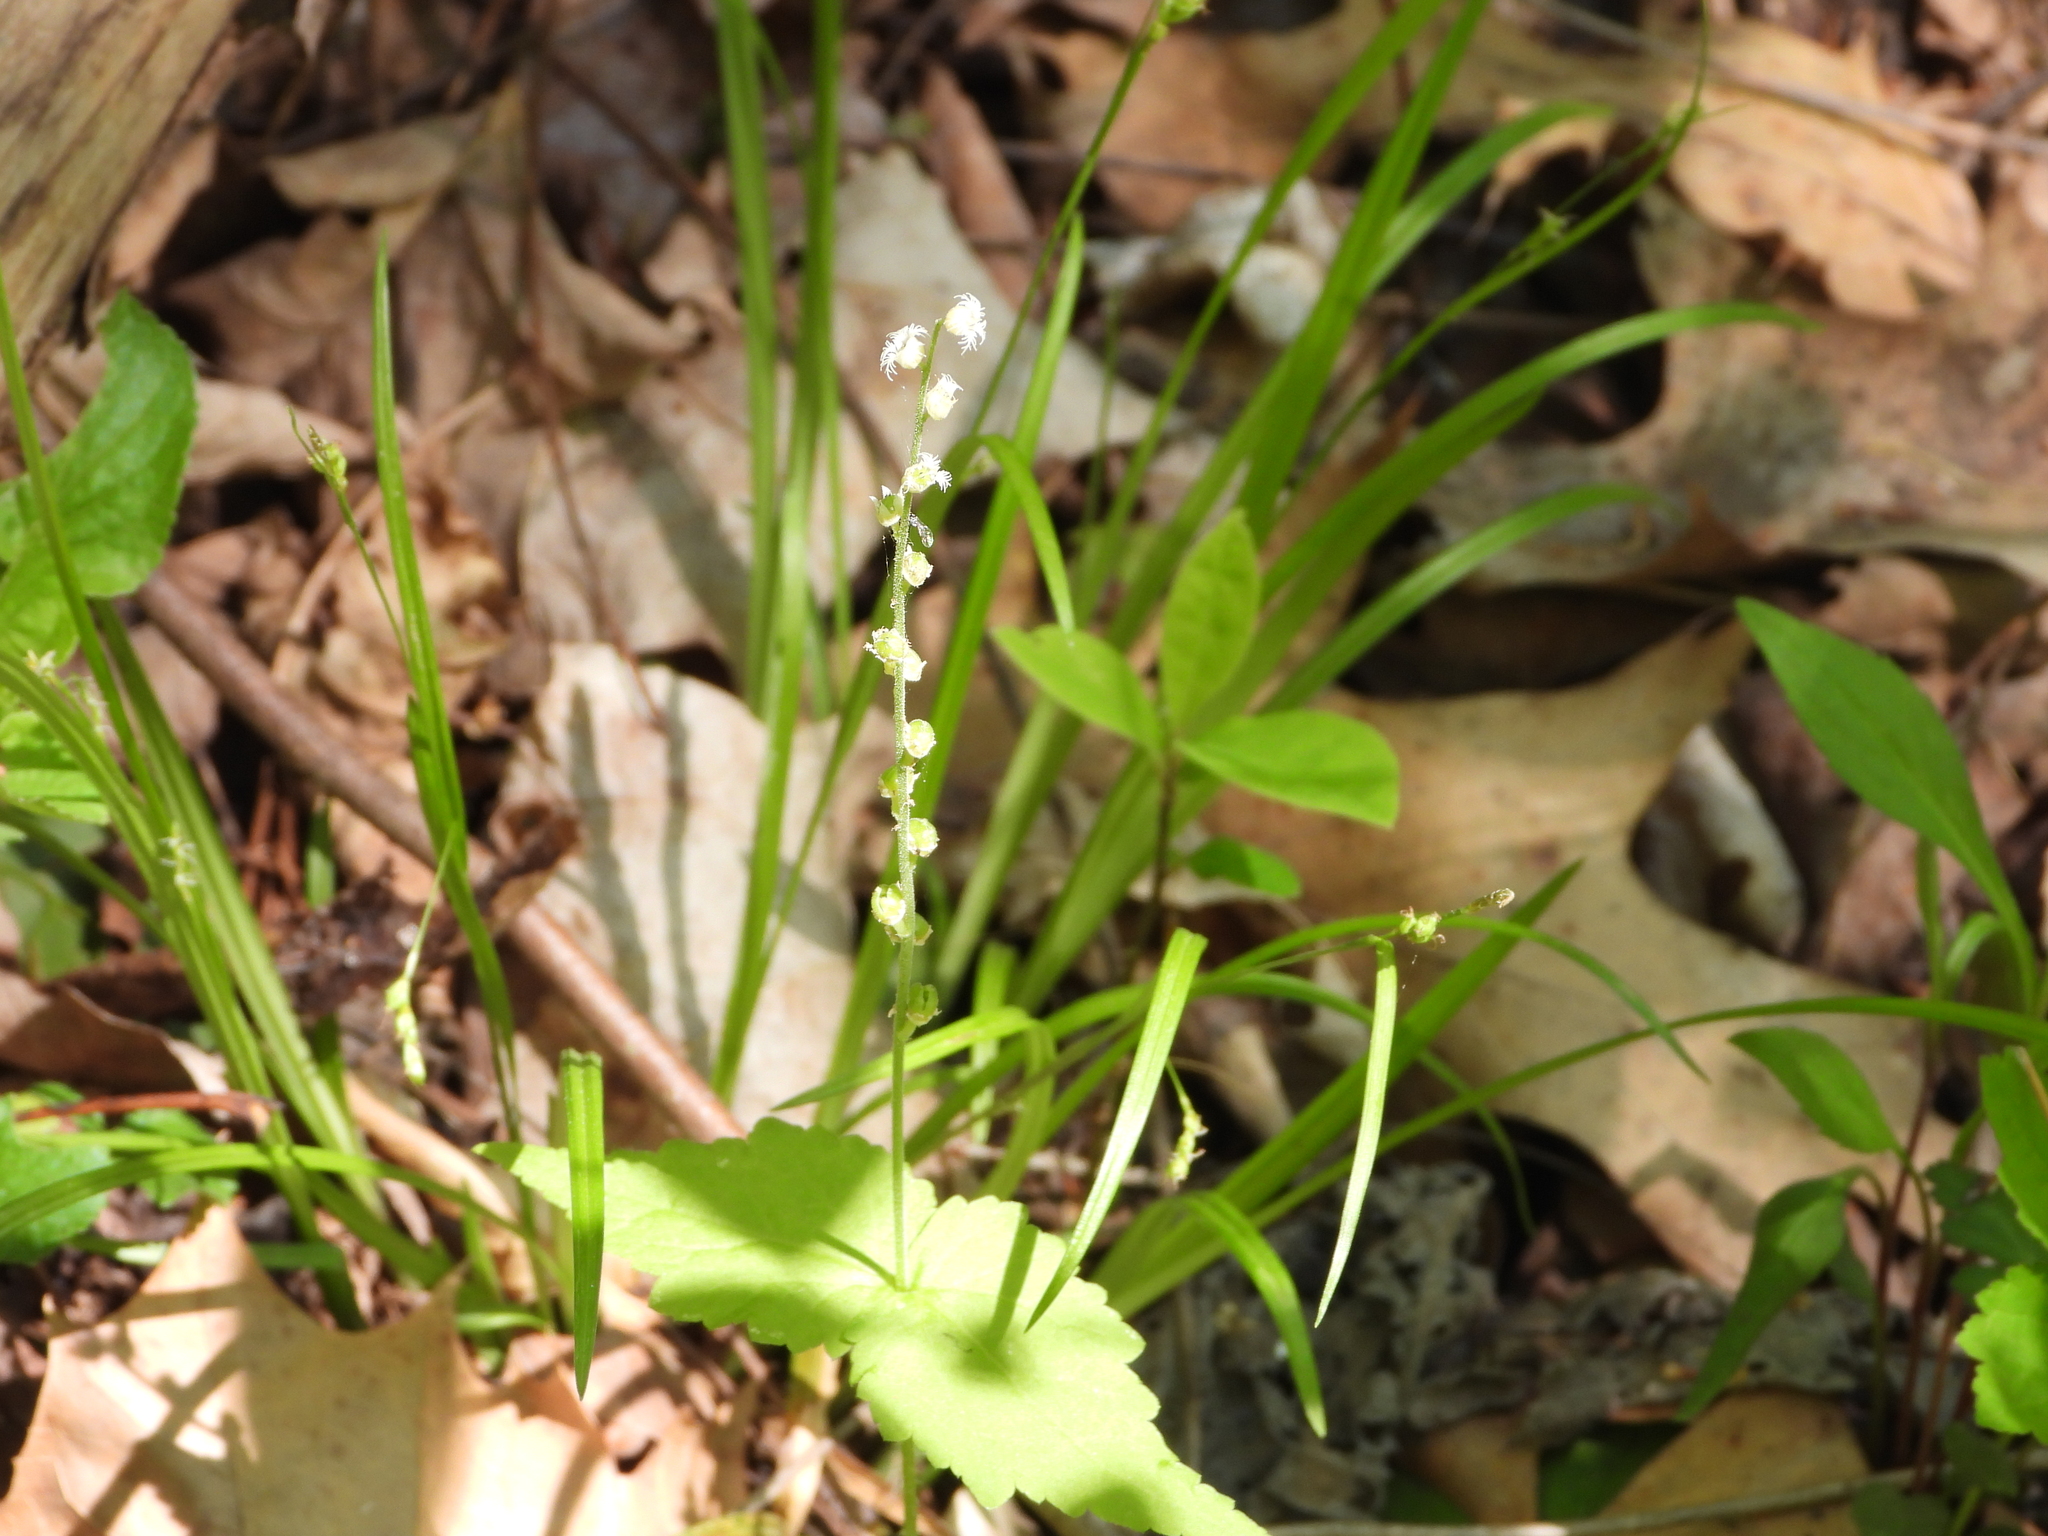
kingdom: Plantae
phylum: Tracheophyta
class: Magnoliopsida
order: Saxifragales
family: Saxifragaceae
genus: Mitella
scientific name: Mitella diphylla
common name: Coolwort
